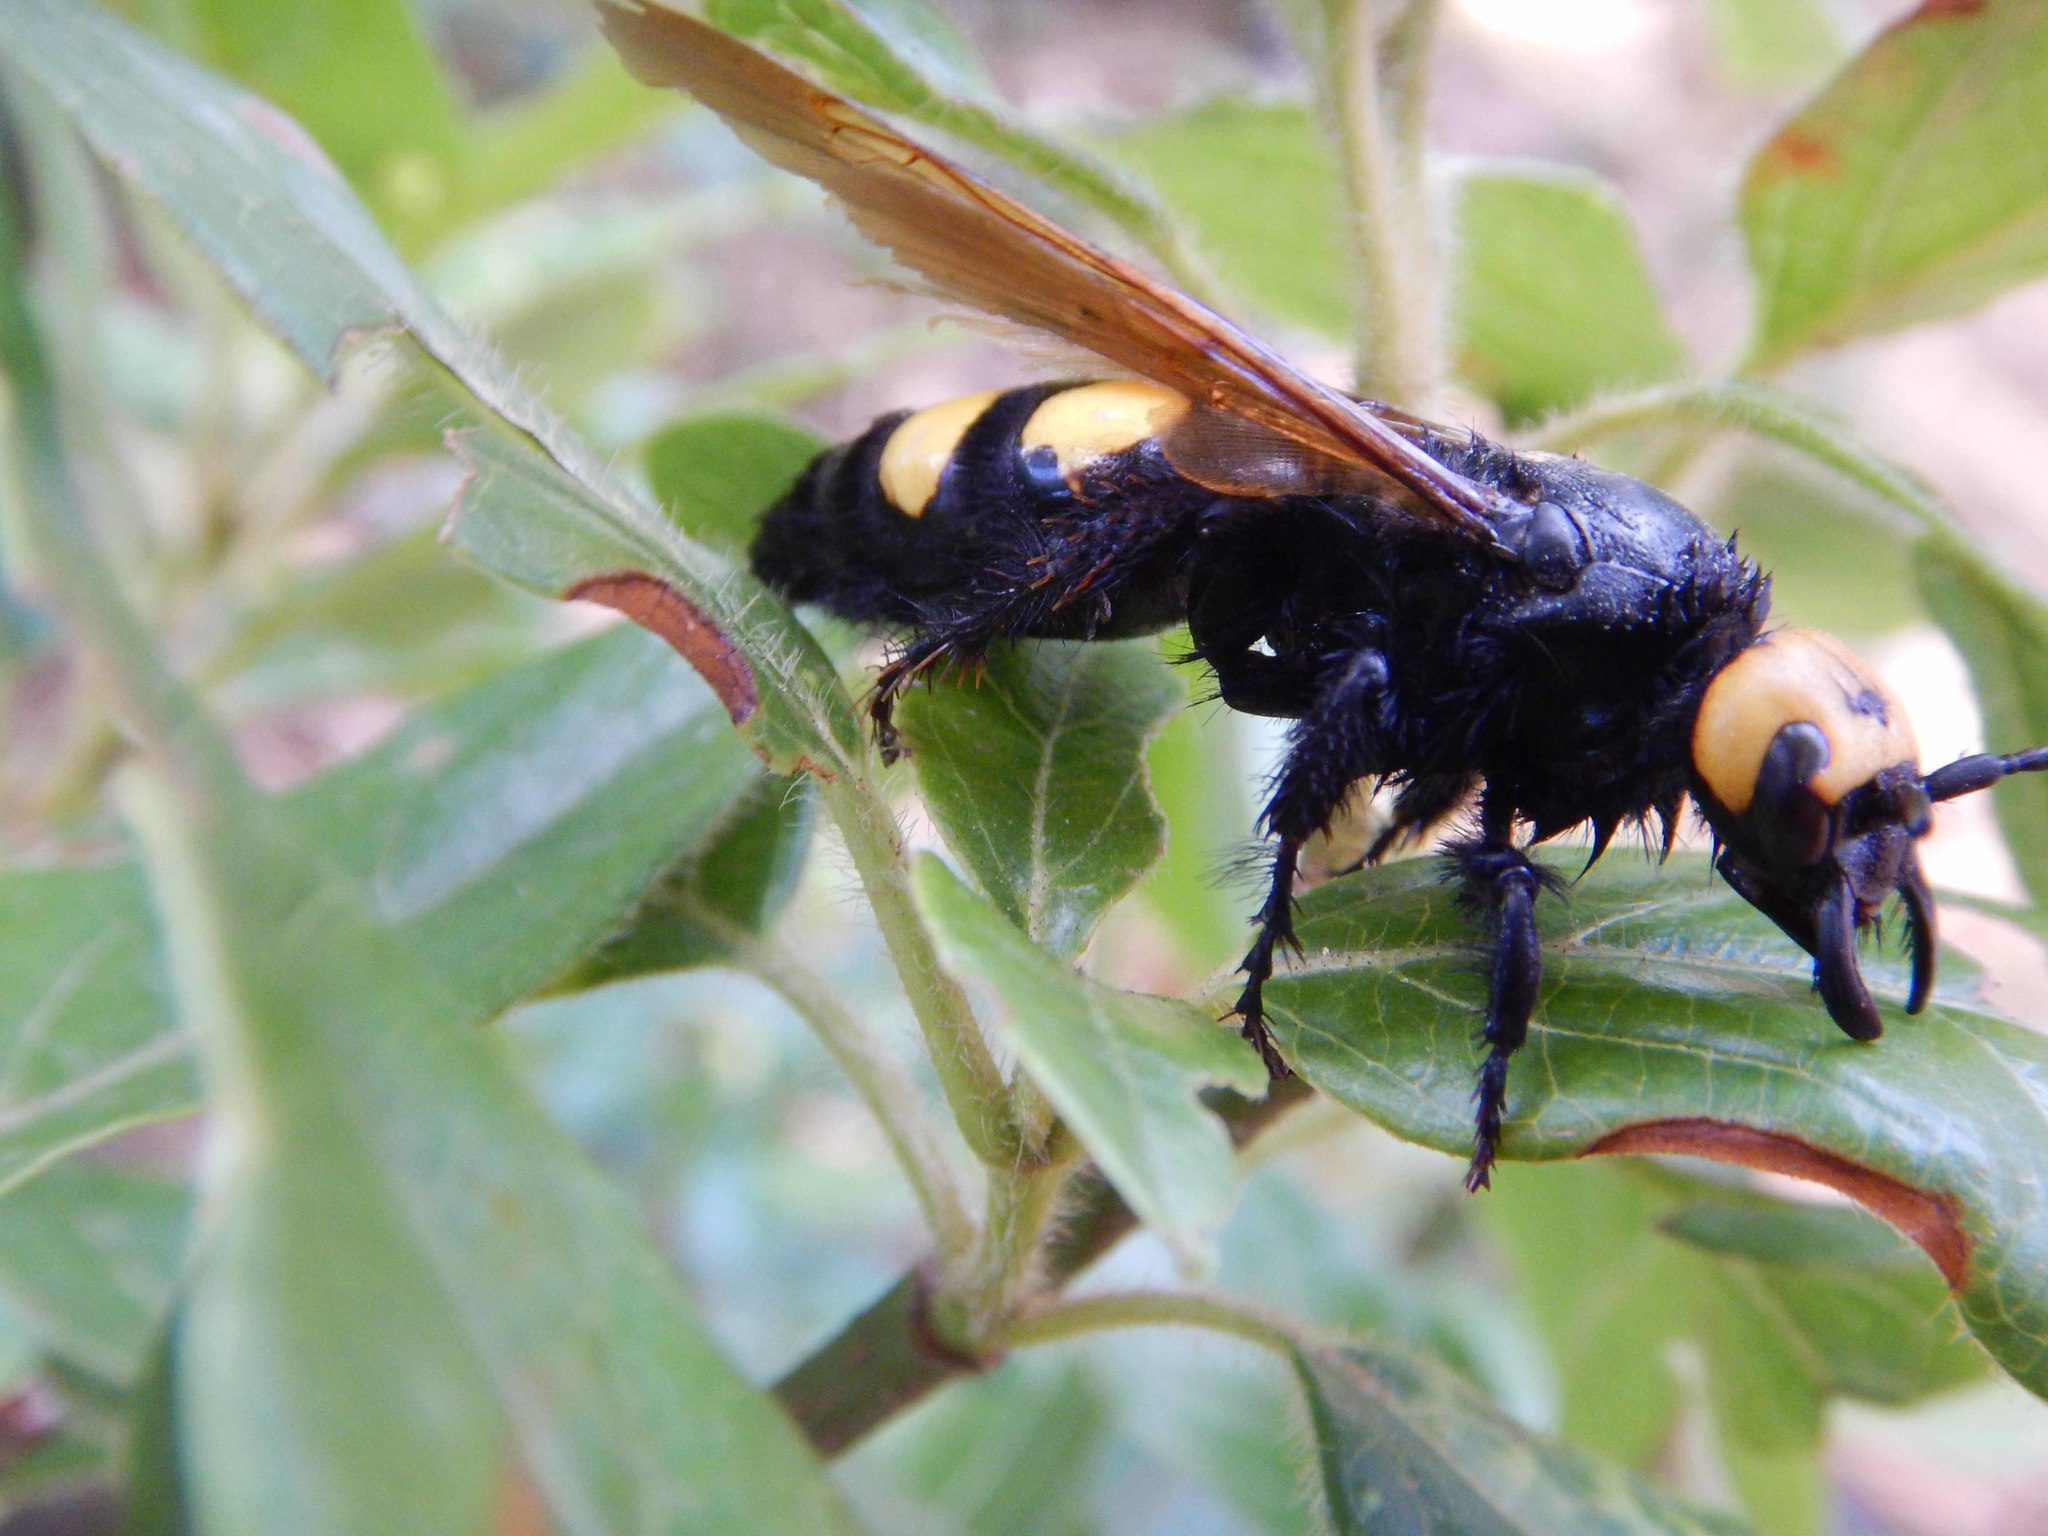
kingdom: Animalia
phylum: Arthropoda
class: Insecta
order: Hymenoptera
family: Scoliidae
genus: Megascolia
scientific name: Megascolia maculata
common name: Mammoth wasp
